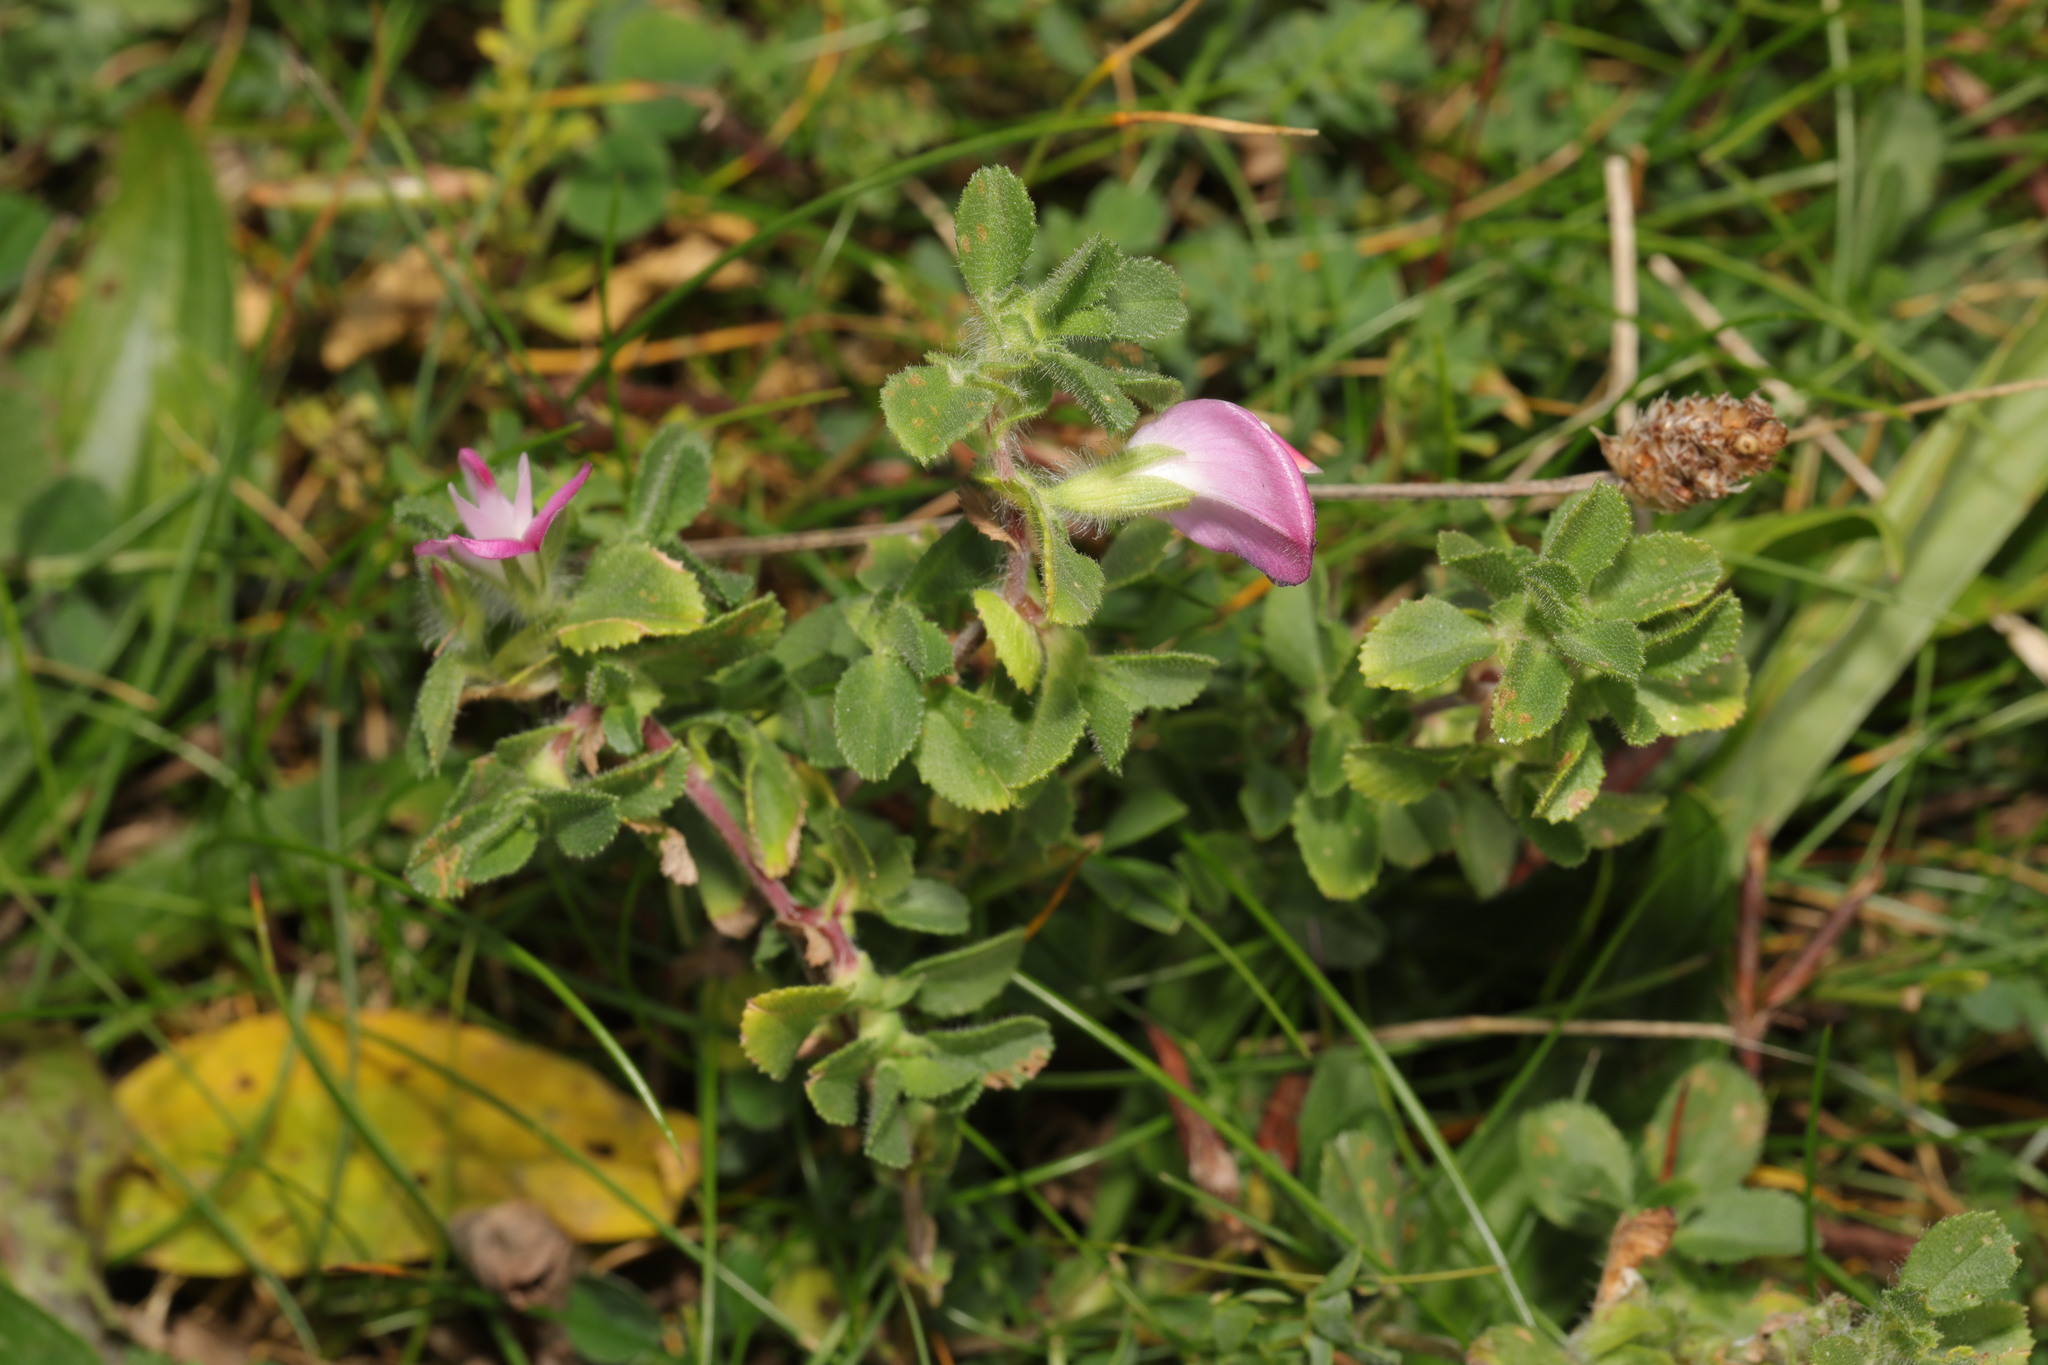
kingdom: Plantae
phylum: Tracheophyta
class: Magnoliopsida
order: Fabales
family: Fabaceae
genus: Ononis
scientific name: Ononis spinosa
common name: Spiny restharrow
